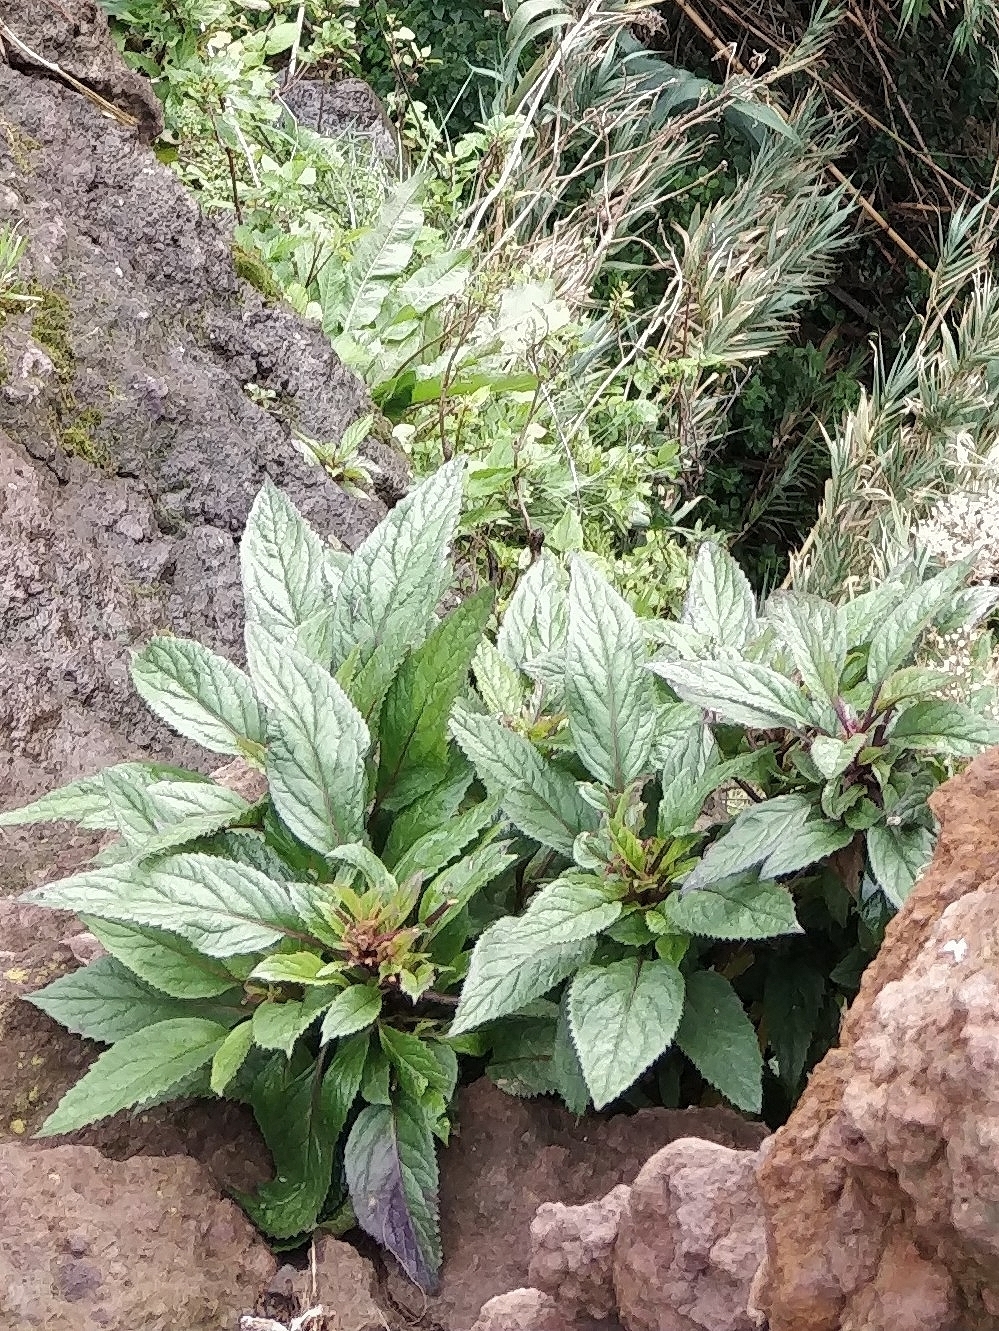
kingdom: Plantae
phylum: Tracheophyta
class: Magnoliopsida
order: Asterales
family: Campanulaceae
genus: Trachelium
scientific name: Trachelium caeruleum
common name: Throatwort
